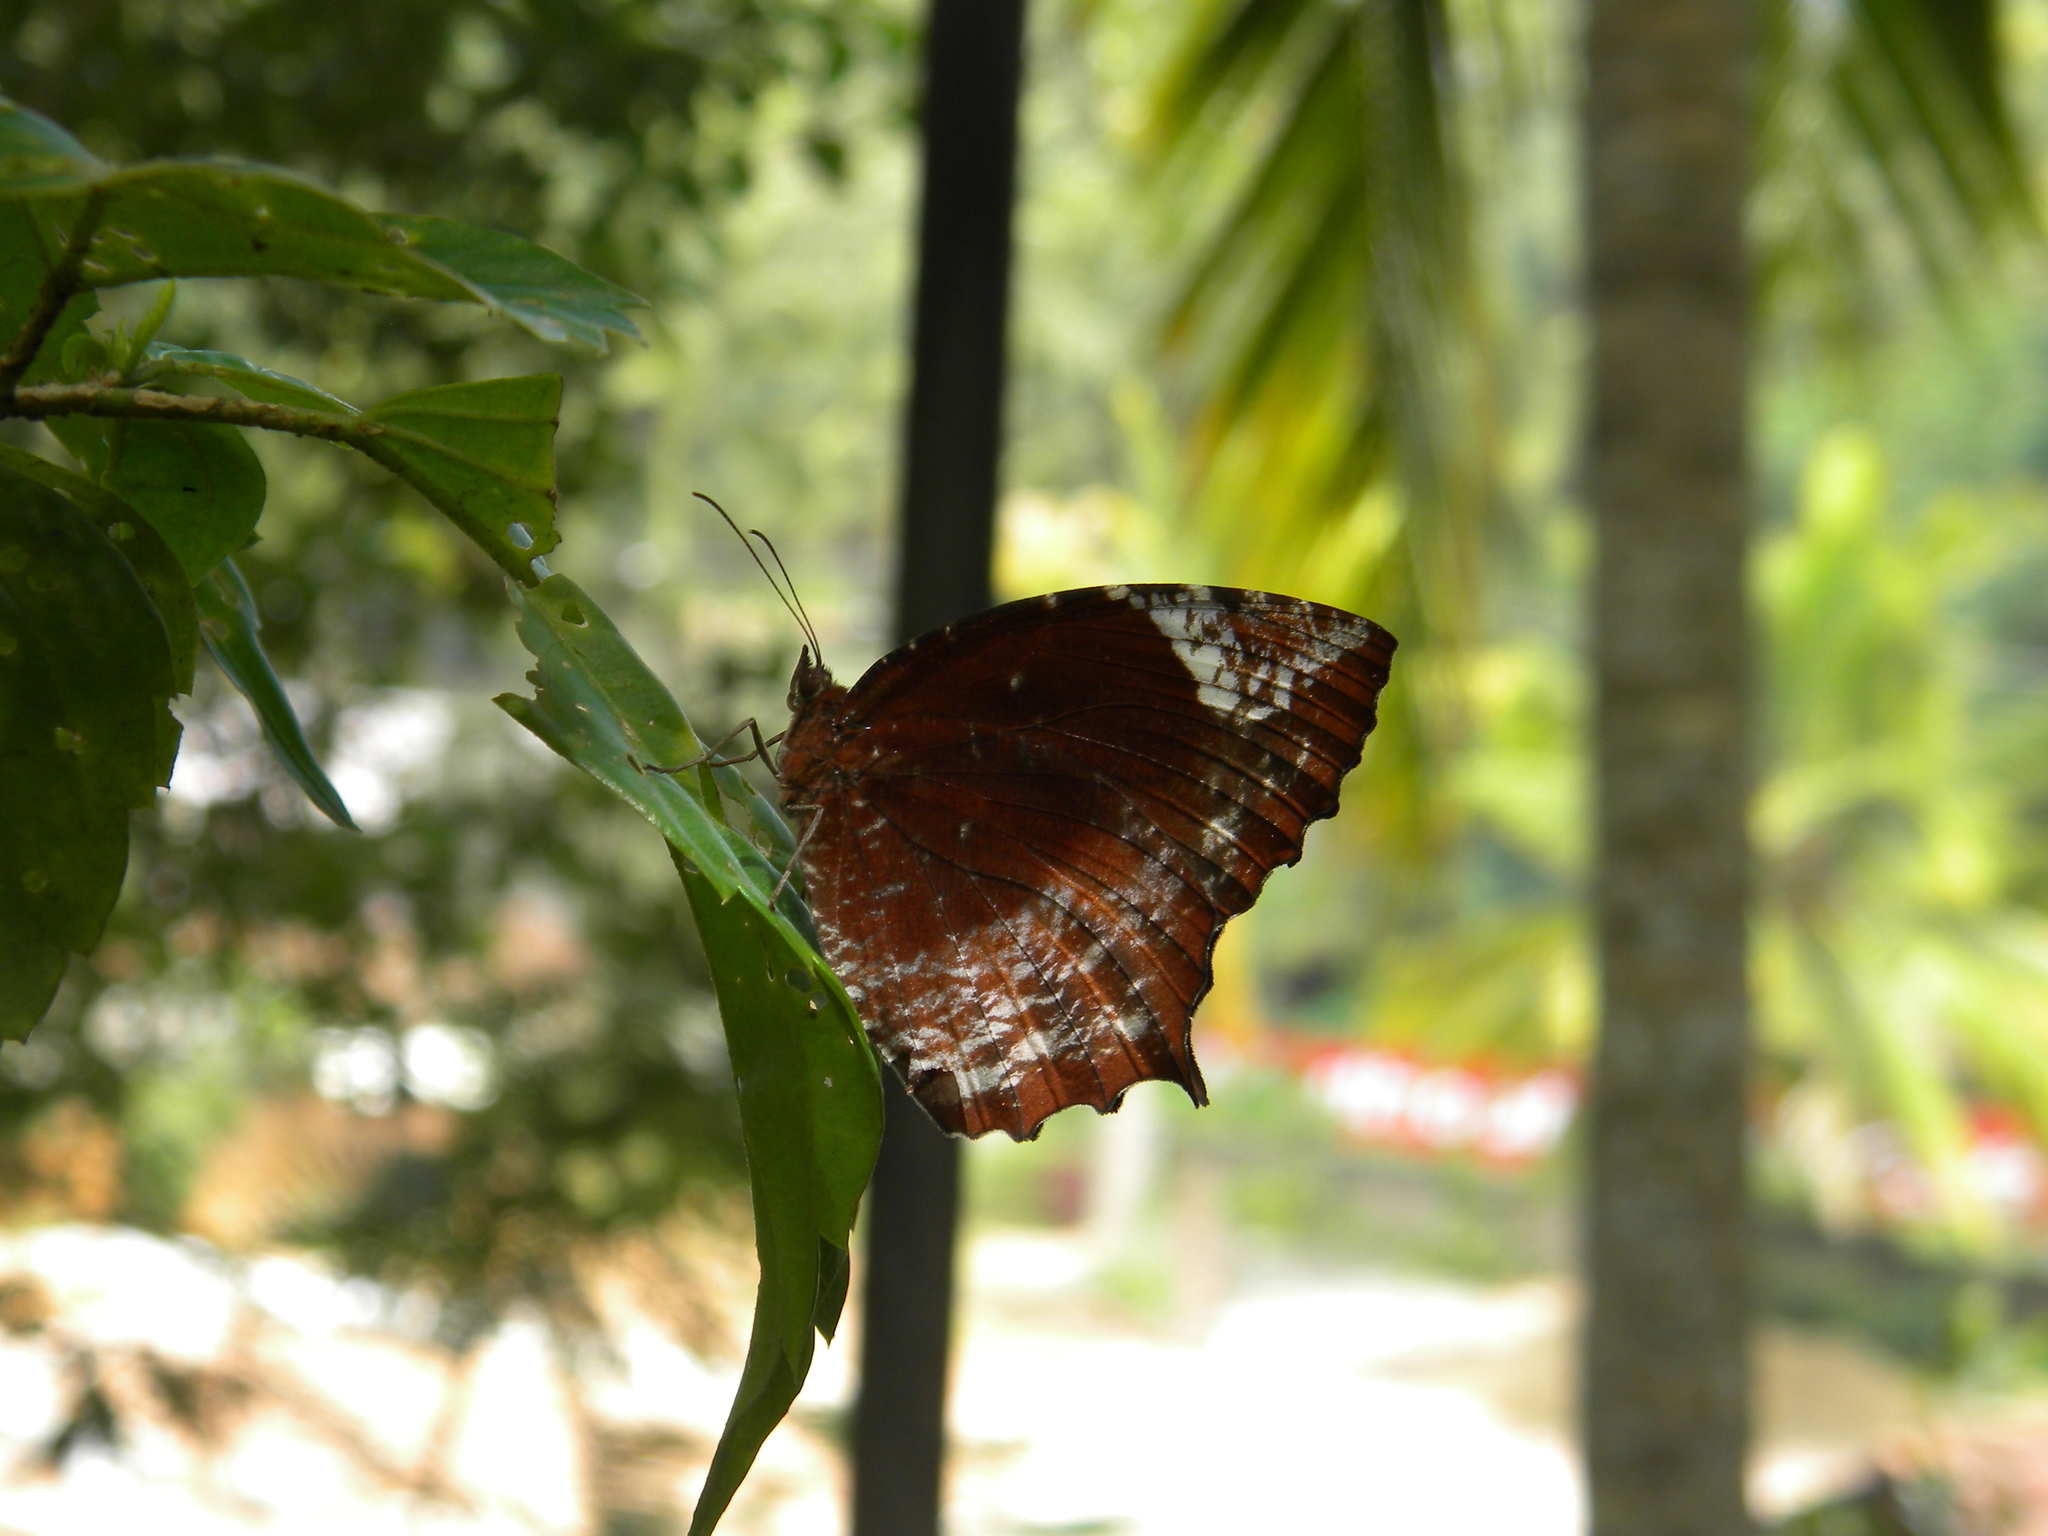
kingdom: Animalia
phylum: Arthropoda
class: Insecta
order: Lepidoptera
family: Nymphalidae
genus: Elymnias
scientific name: Elymnias caudata
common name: Tailed palmfly
